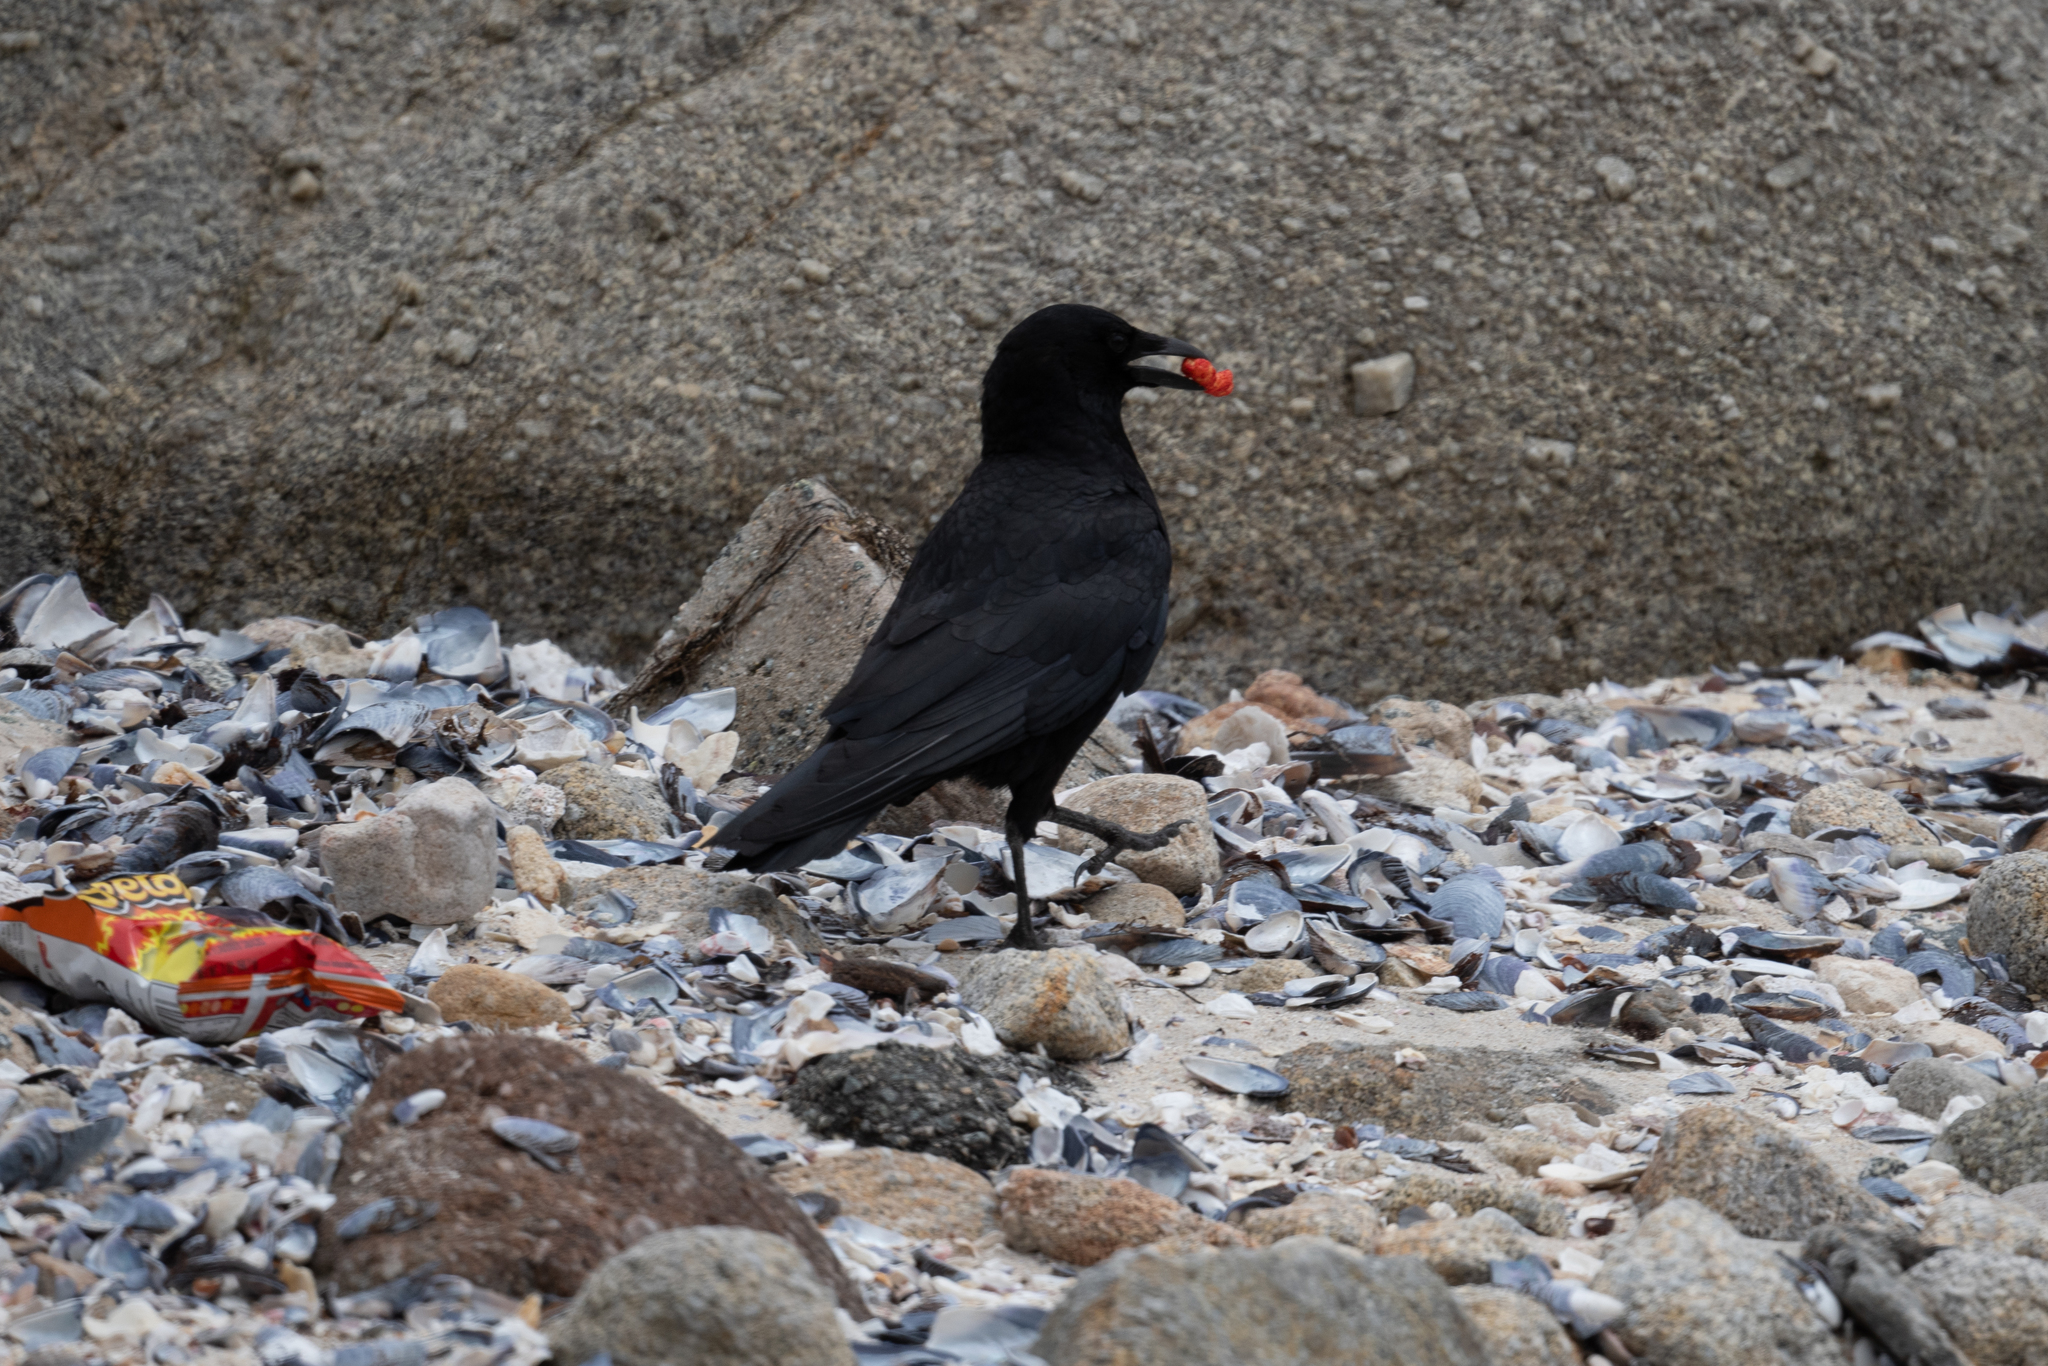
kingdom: Animalia
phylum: Chordata
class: Aves
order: Passeriformes
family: Corvidae
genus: Corvus
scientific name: Corvus brachyrhynchos
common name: American crow
